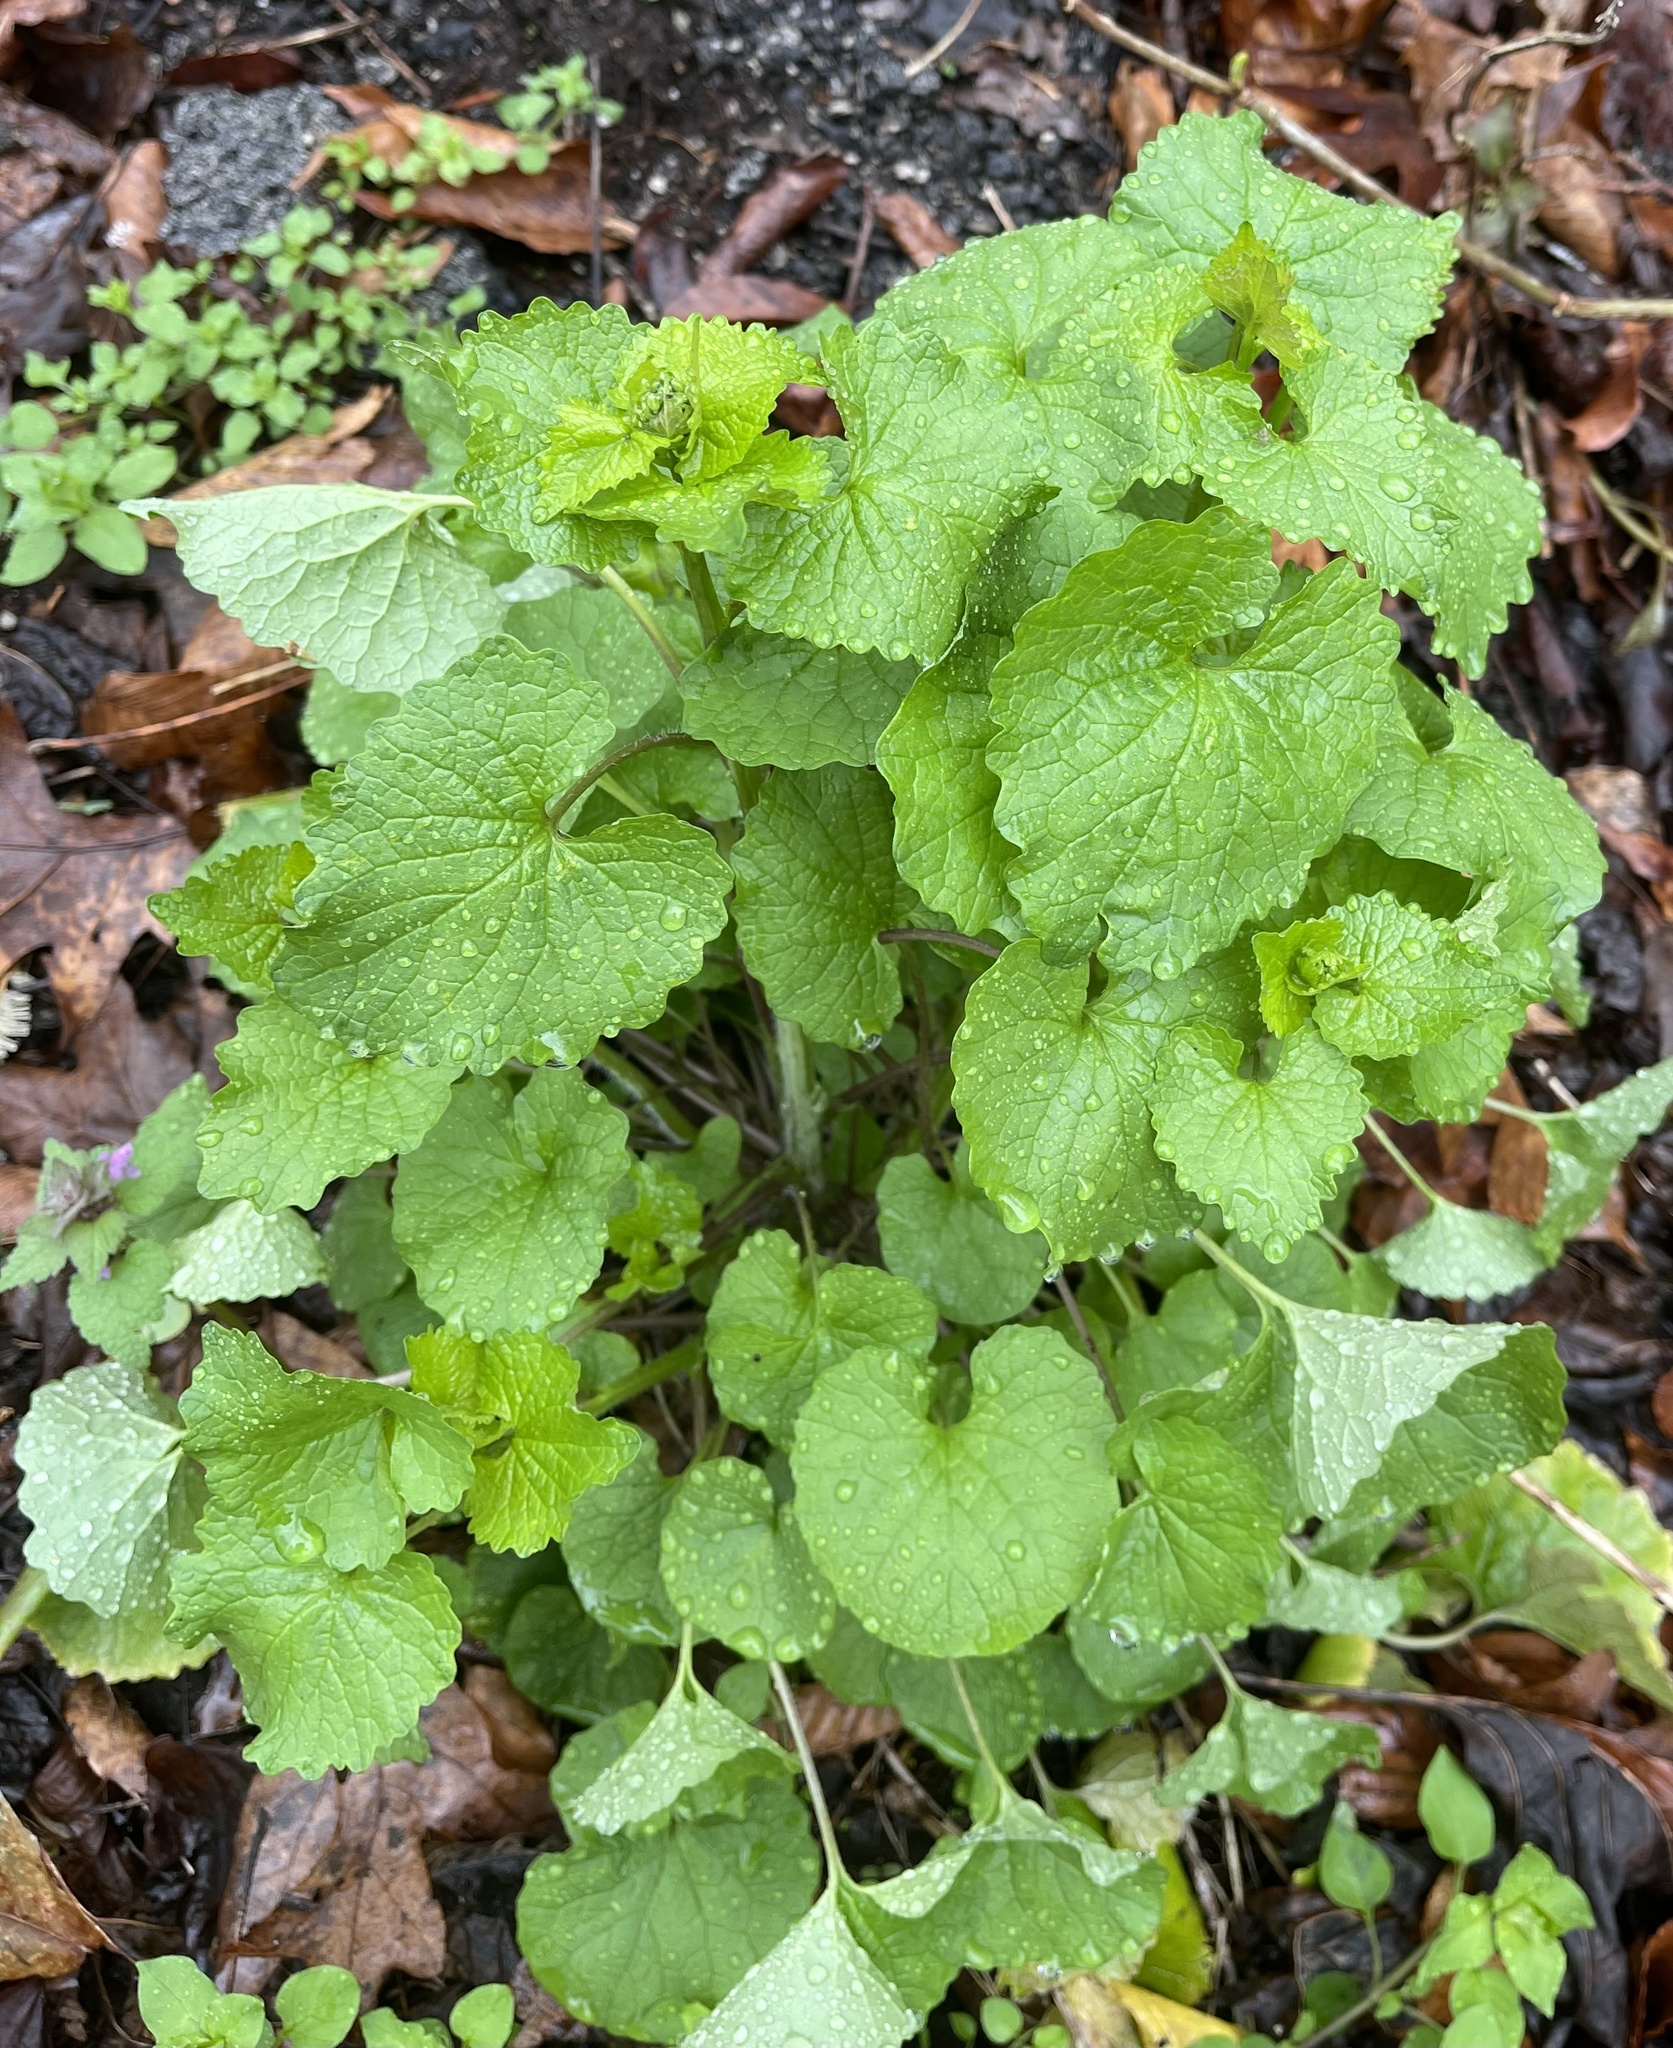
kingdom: Plantae
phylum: Tracheophyta
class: Magnoliopsida
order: Brassicales
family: Brassicaceae
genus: Alliaria
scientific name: Alliaria petiolata
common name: Garlic mustard
